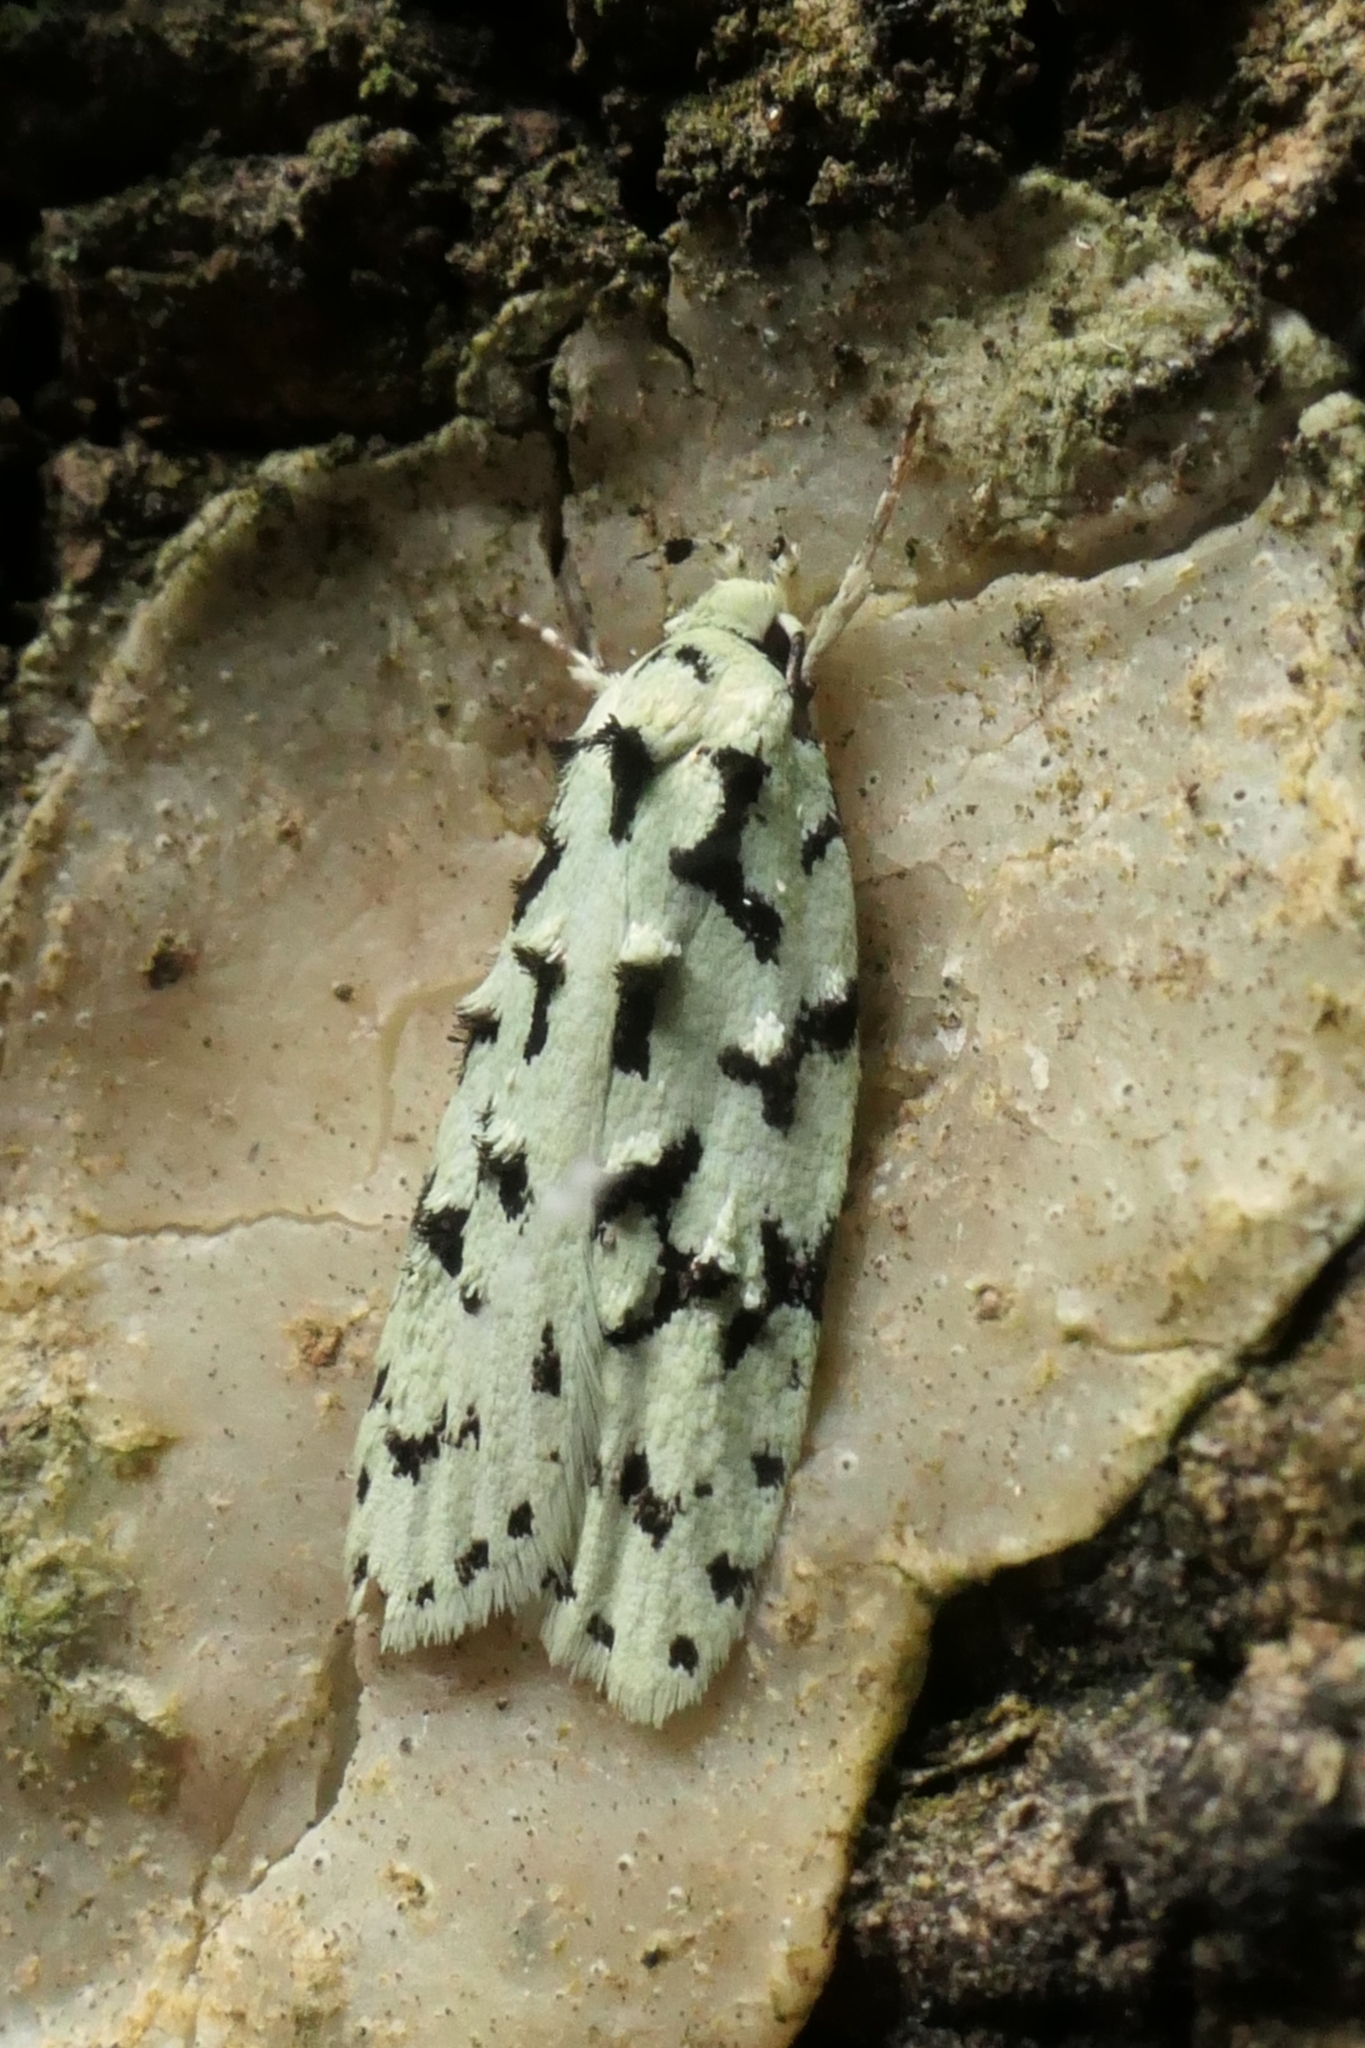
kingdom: Animalia
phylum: Arthropoda
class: Insecta
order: Lepidoptera
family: Oecophoridae
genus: Izatha
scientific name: Izatha huttoni
